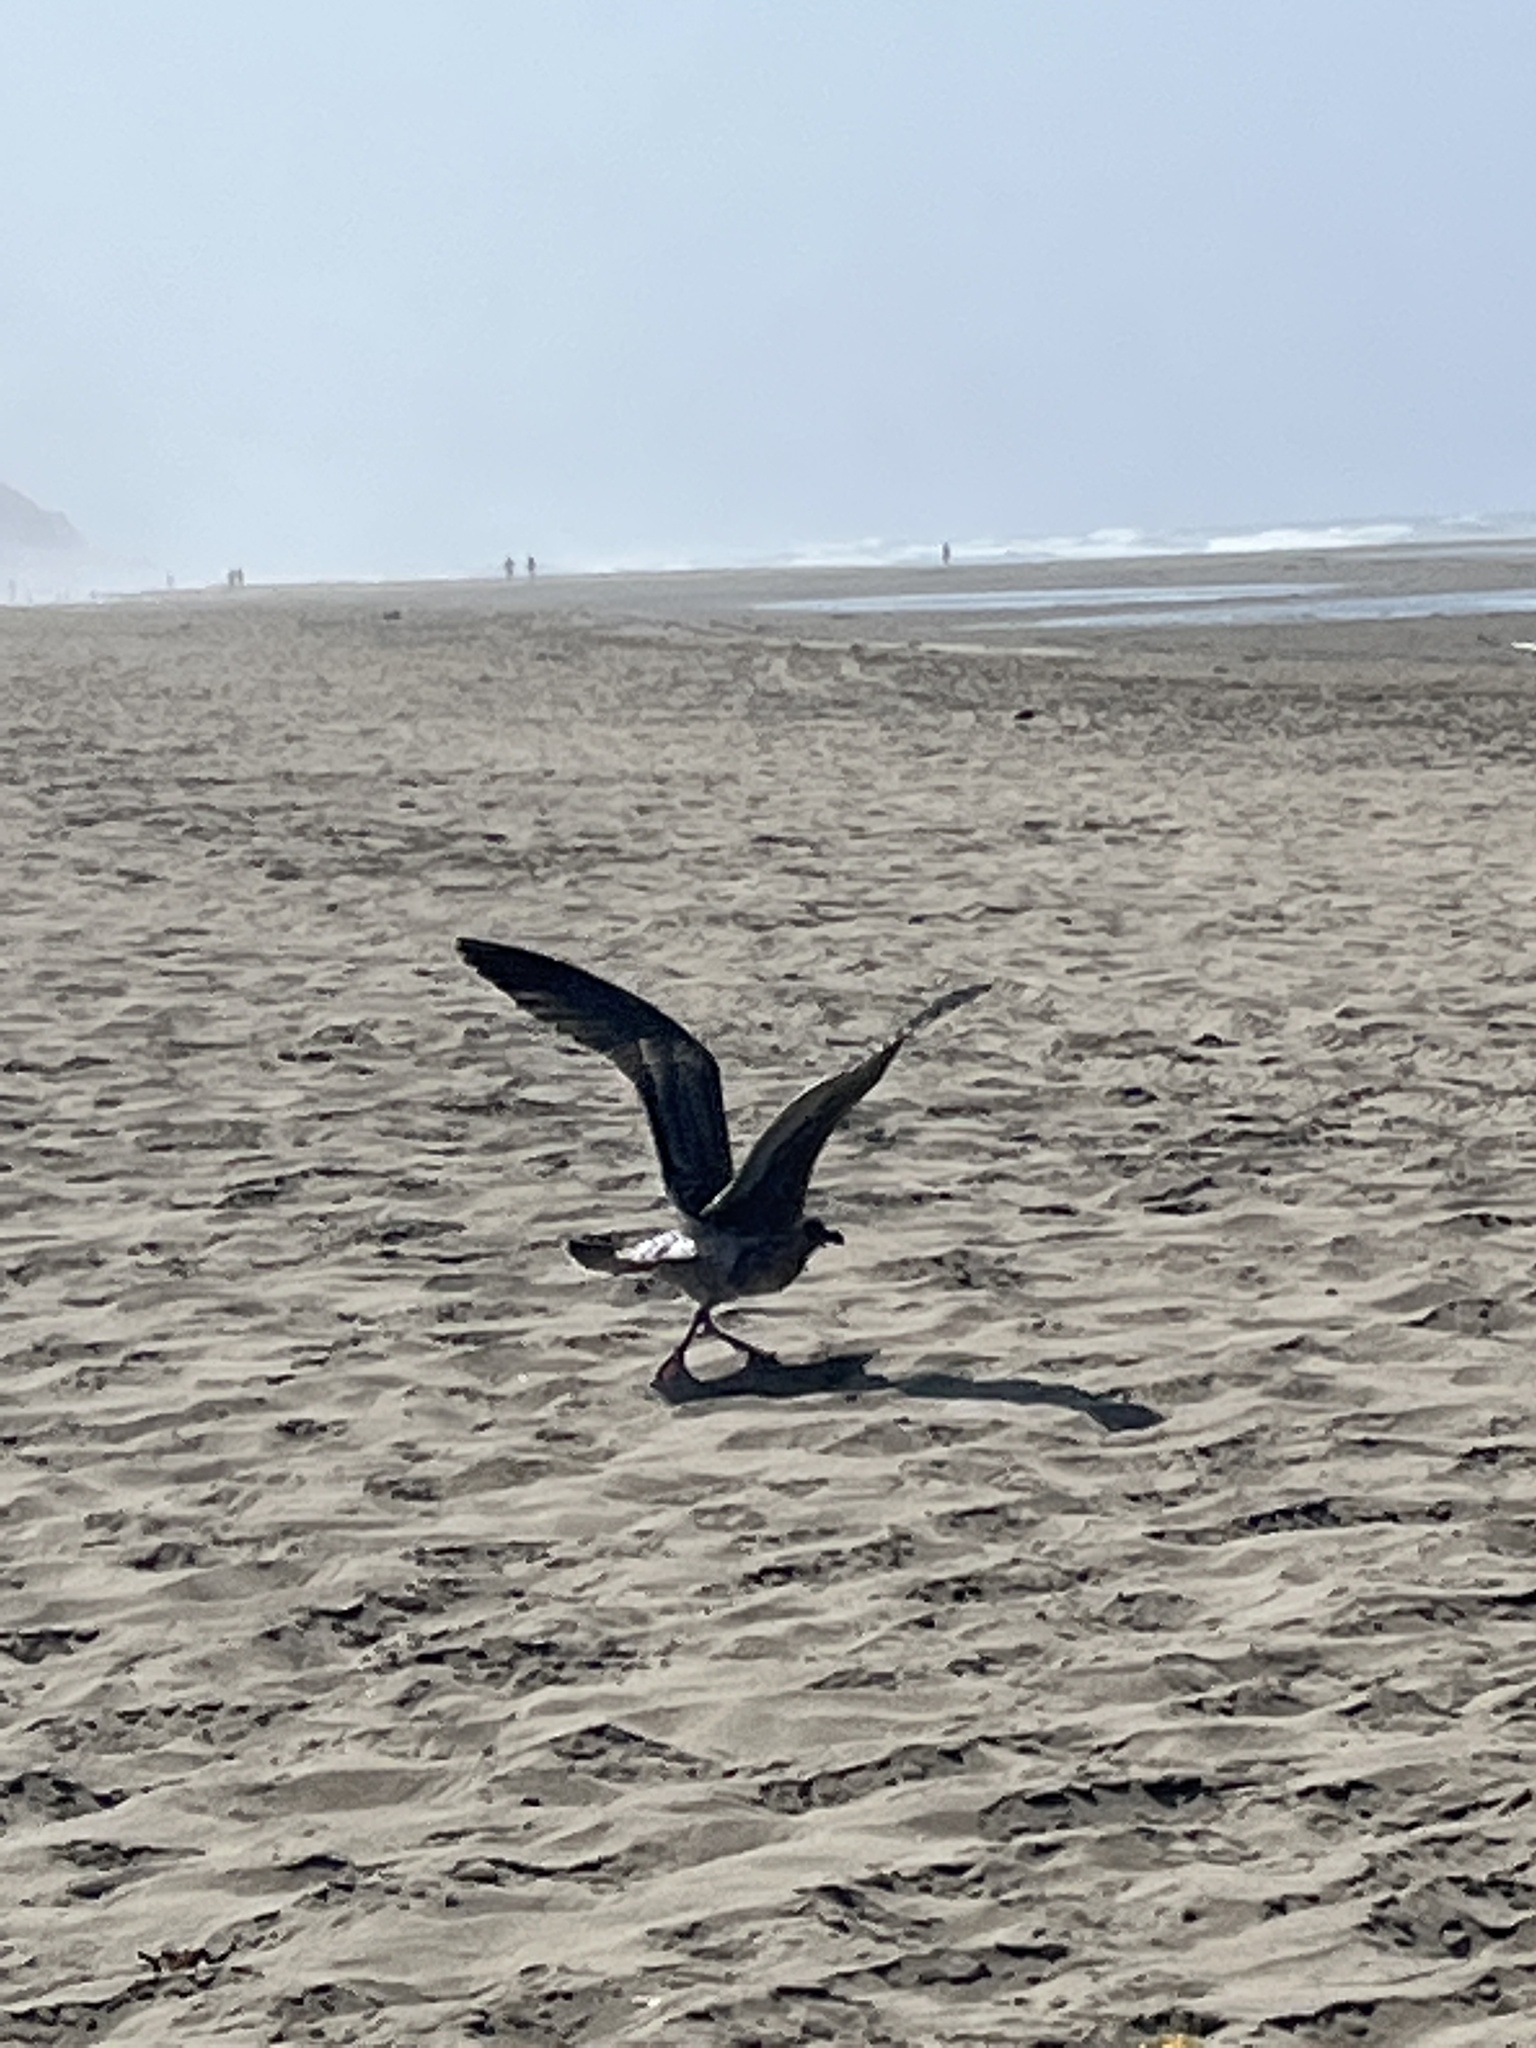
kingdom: Animalia
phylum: Chordata
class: Aves
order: Charadriiformes
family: Laridae
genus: Larus
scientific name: Larus occidentalis
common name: Western gull
